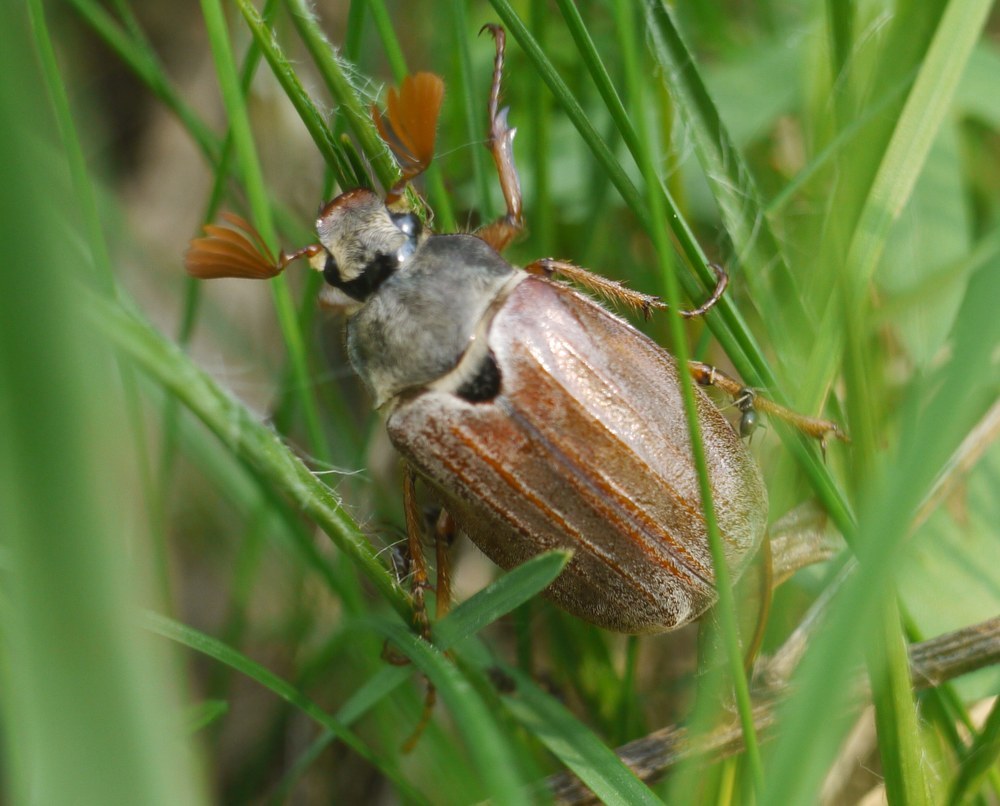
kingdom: Animalia
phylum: Arthropoda
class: Insecta
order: Coleoptera
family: Scarabaeidae
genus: Melolontha
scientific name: Melolontha melolontha
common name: Cockchafer maybeetle
